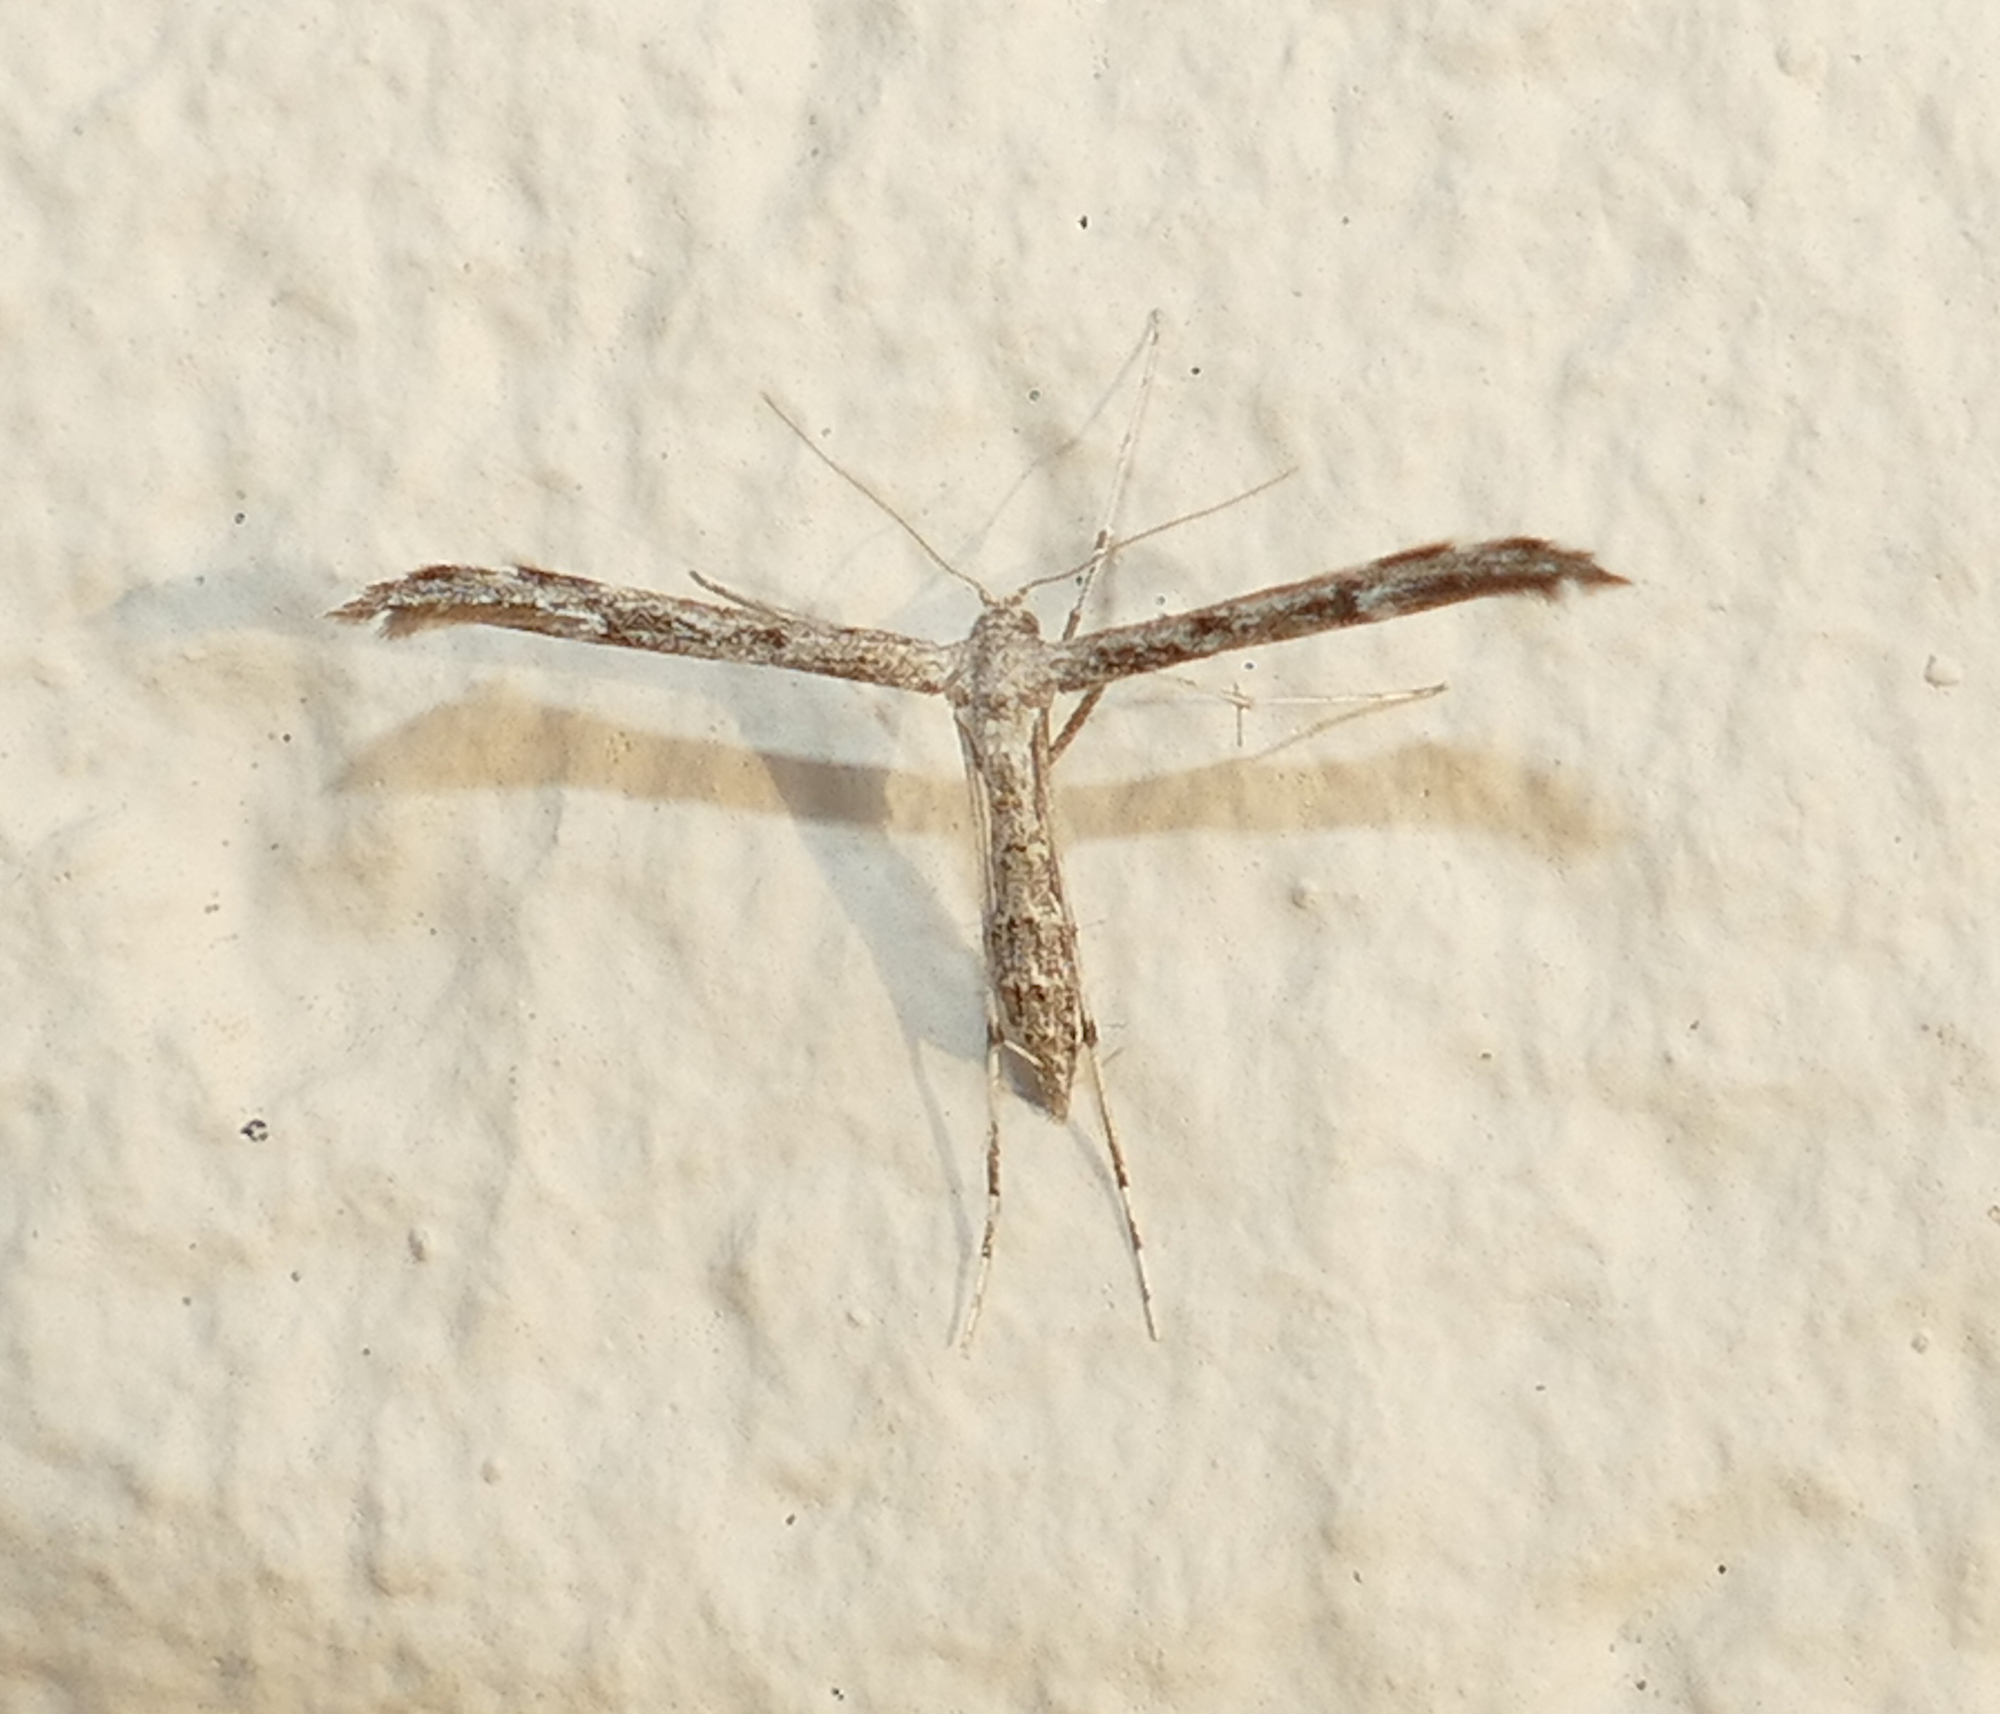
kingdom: Animalia
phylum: Arthropoda
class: Insecta
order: Lepidoptera
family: Pterophoridae
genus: Hellinsia
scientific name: Hellinsia inquinatus
